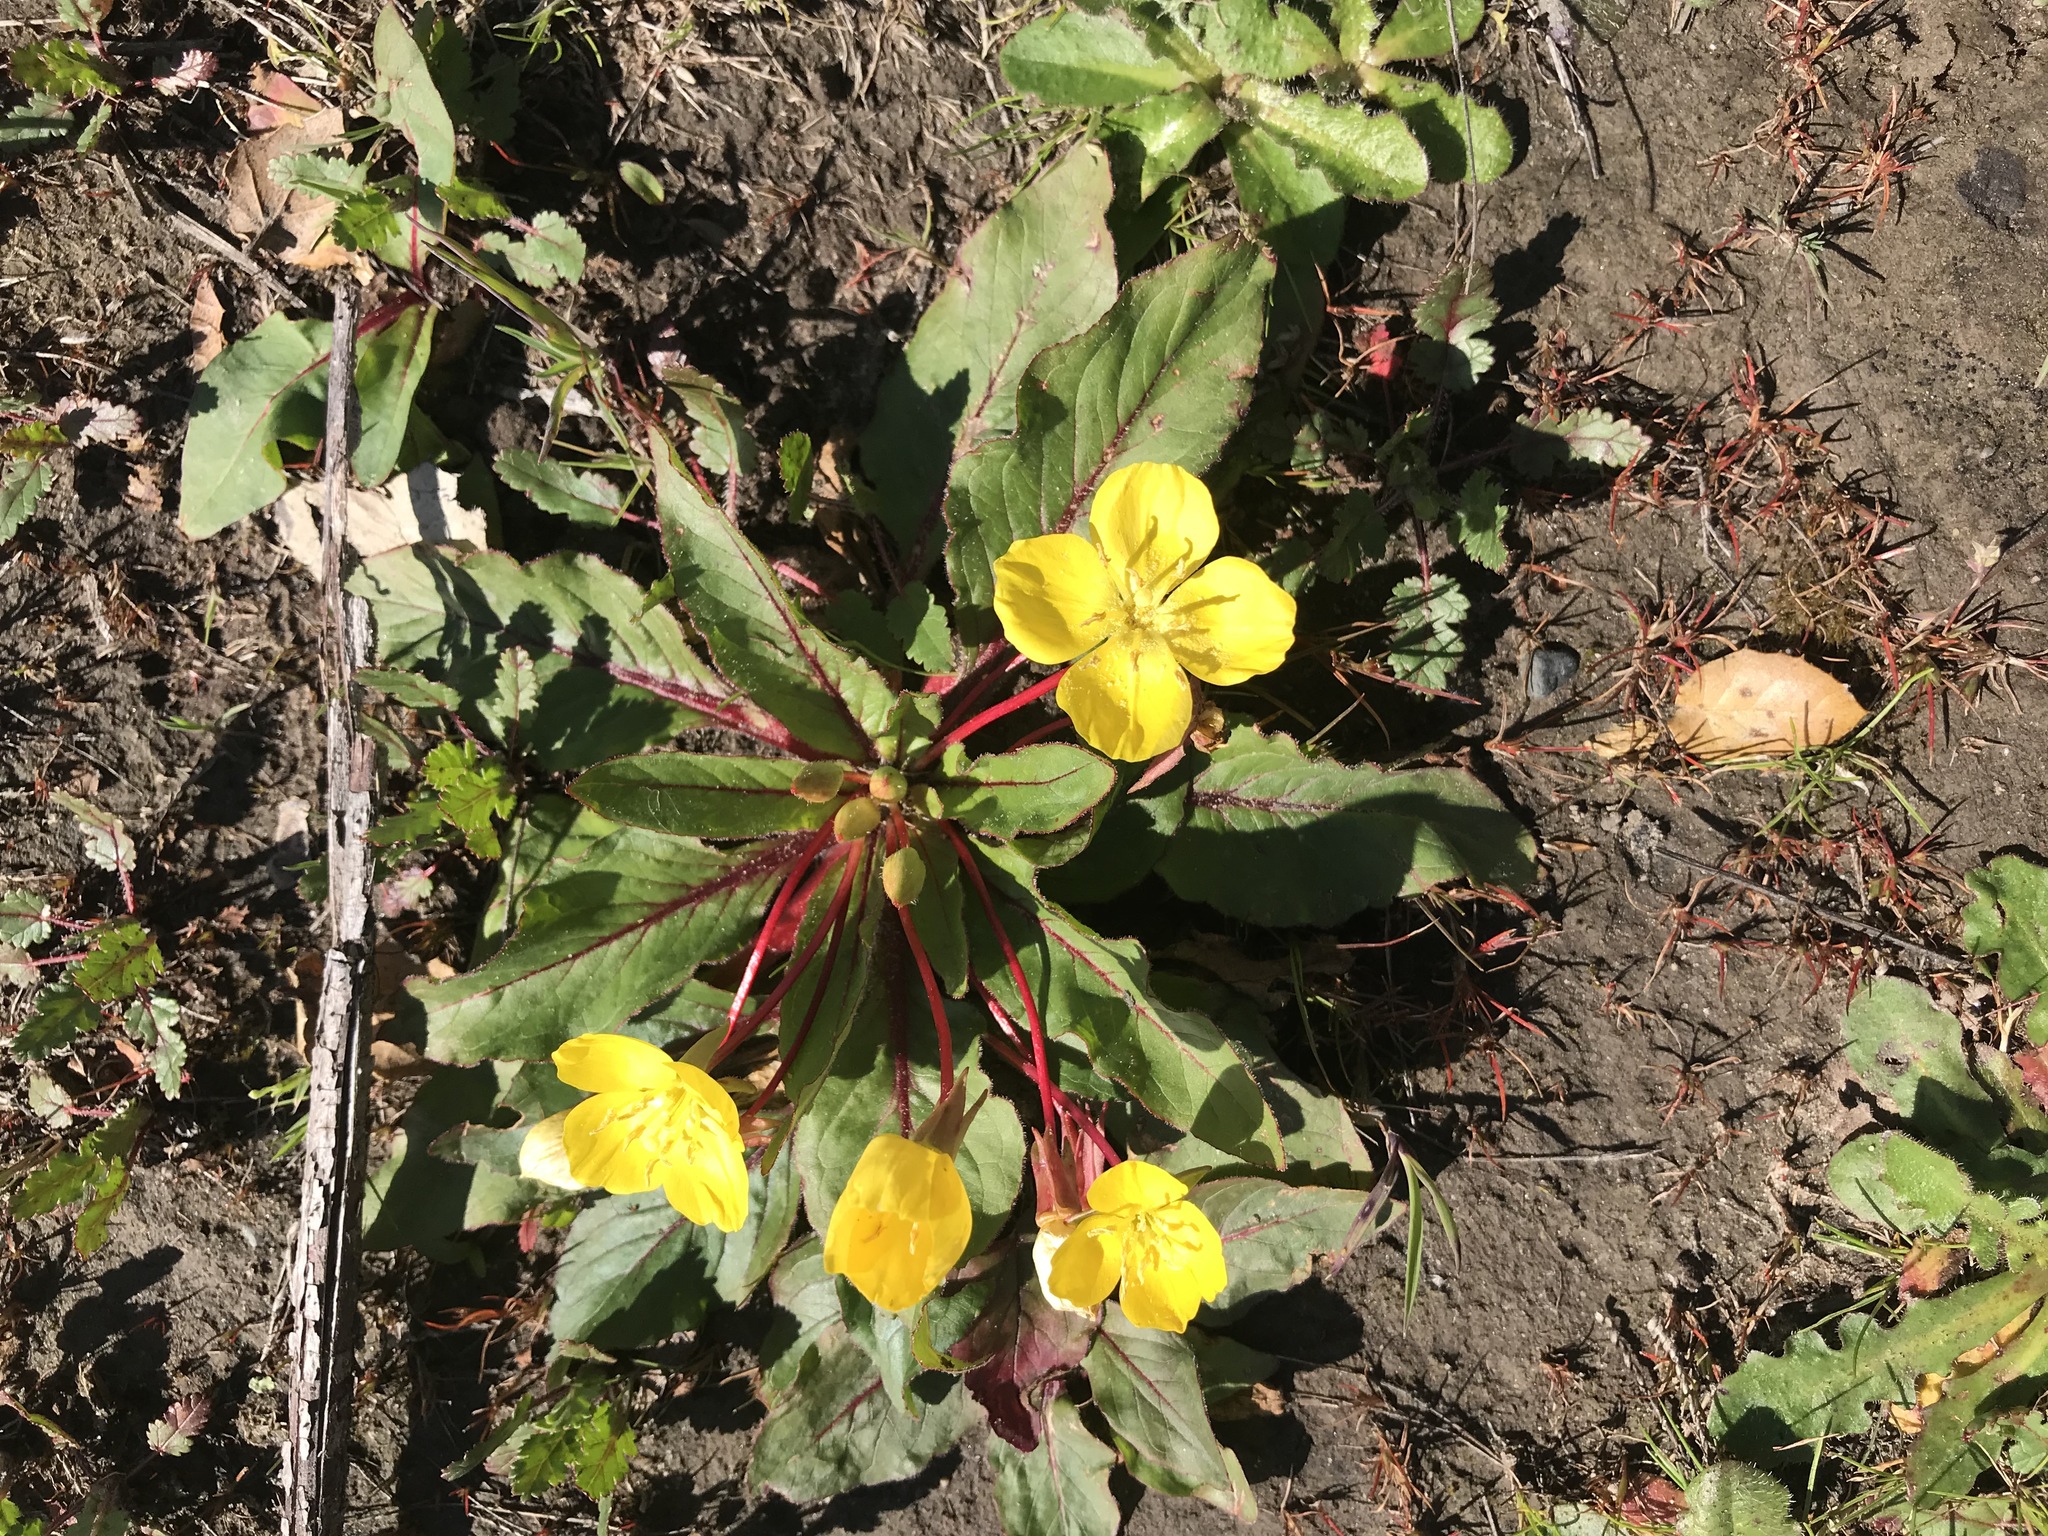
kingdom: Plantae
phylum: Tracheophyta
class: Magnoliopsida
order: Myrtales
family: Onagraceae
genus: Taraxia
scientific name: Taraxia ovata
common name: Goldeneggs
